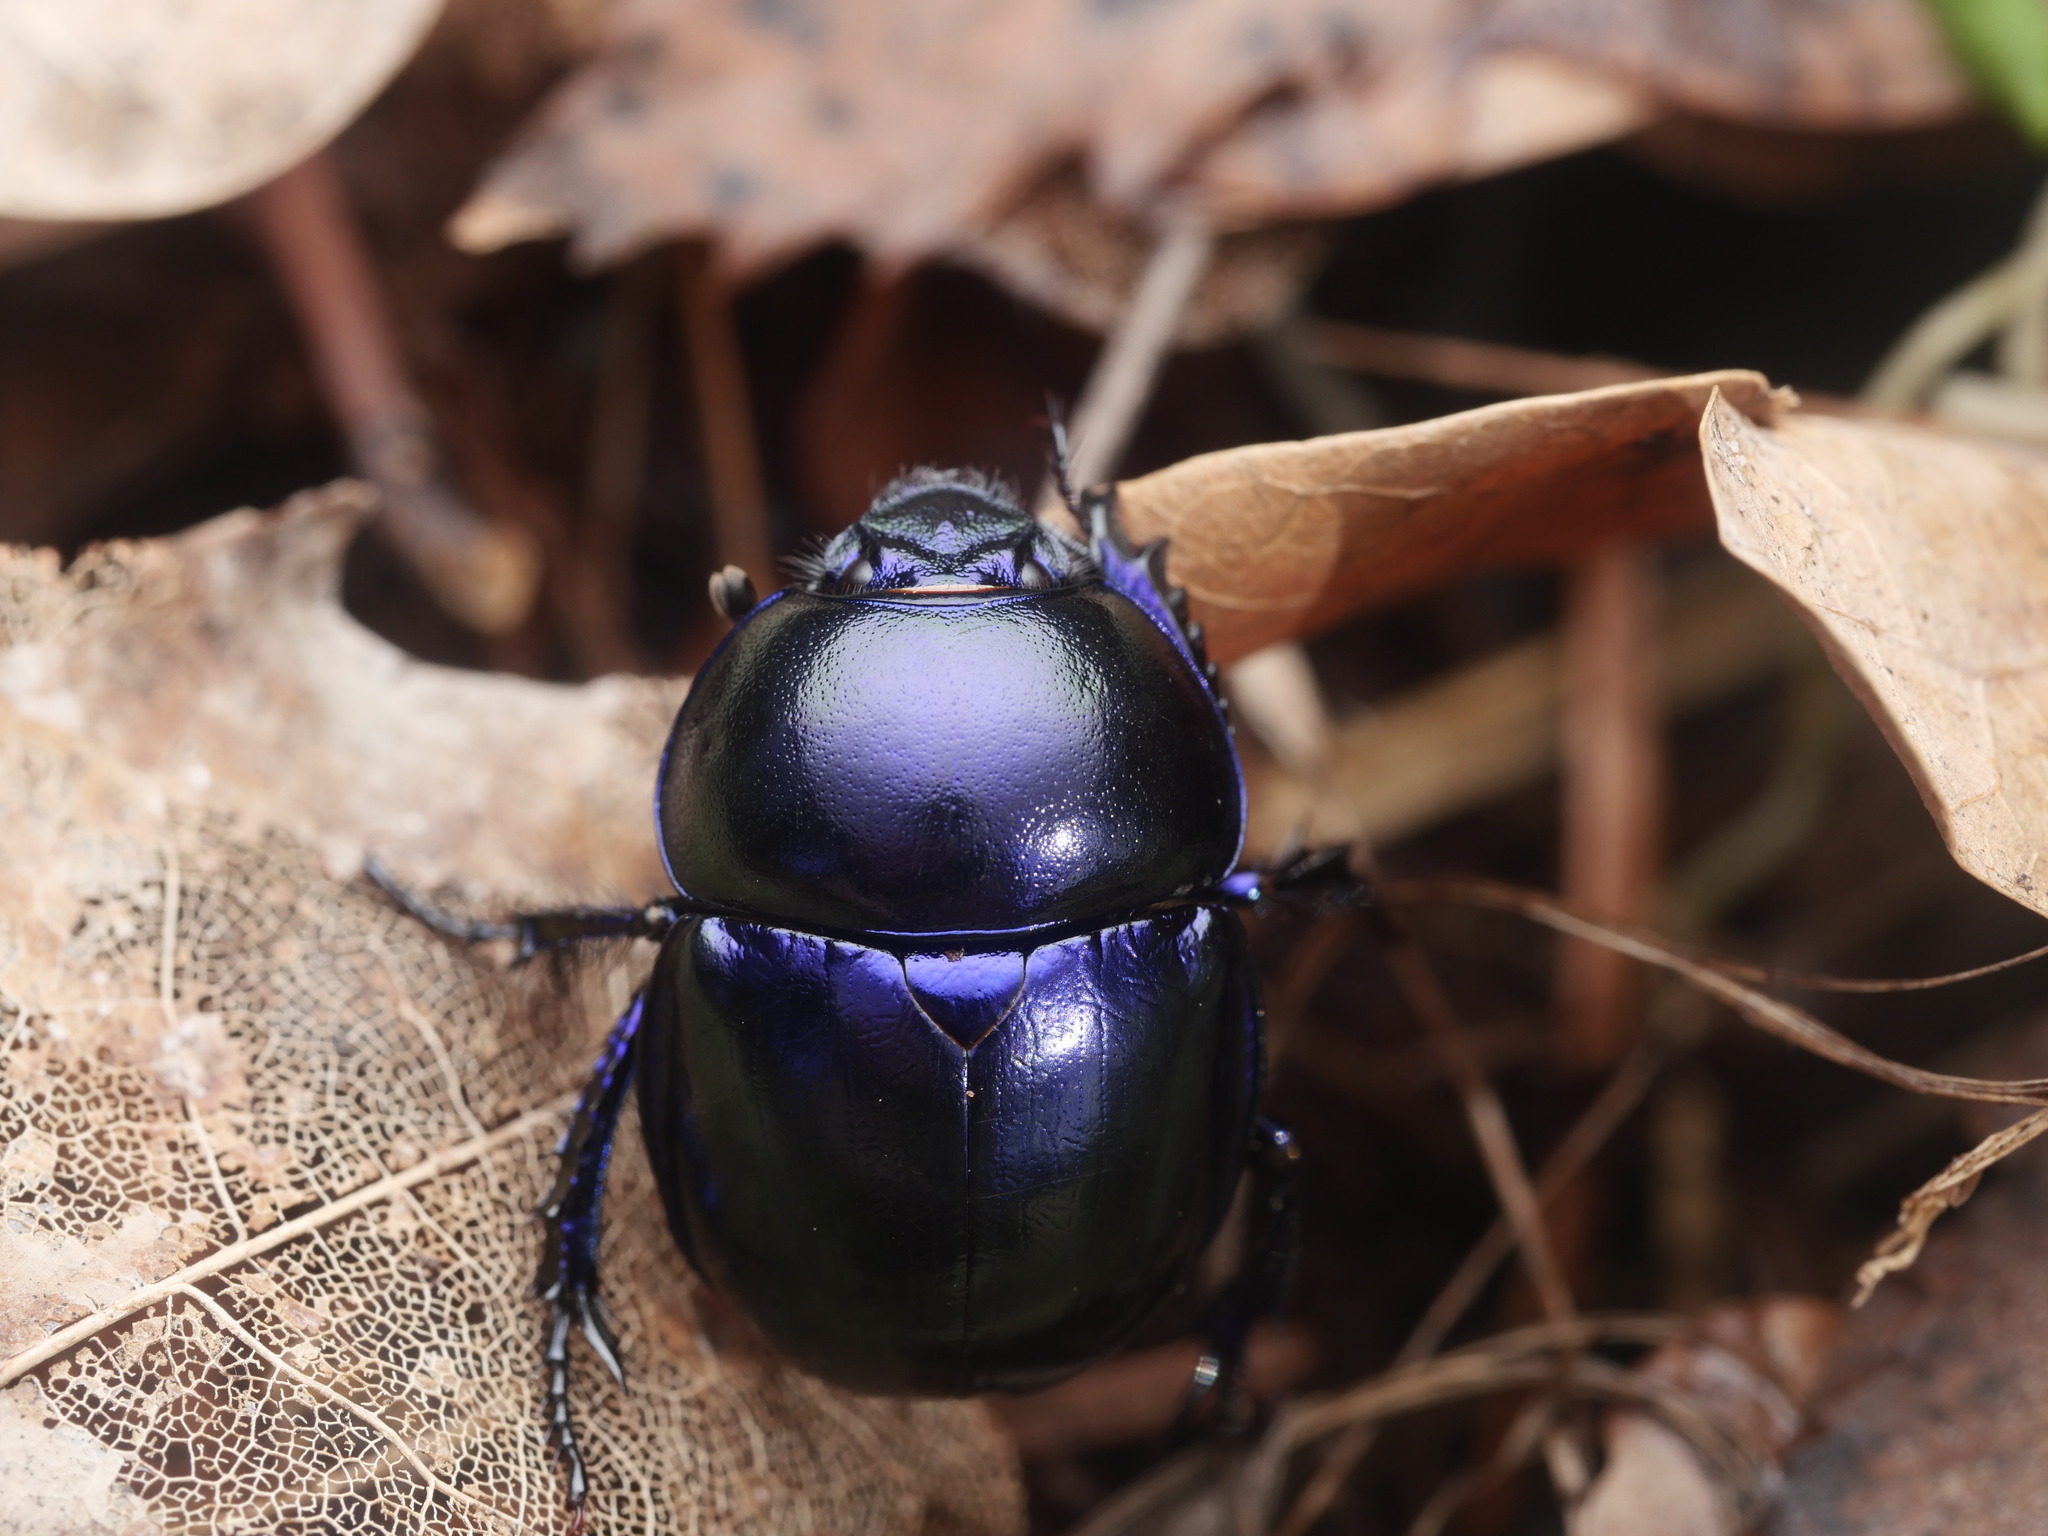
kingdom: Animalia
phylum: Arthropoda
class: Insecta
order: Coleoptera
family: Geotrupidae
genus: Trypocopris
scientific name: Trypocopris vernalis
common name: Spring dumbledor
